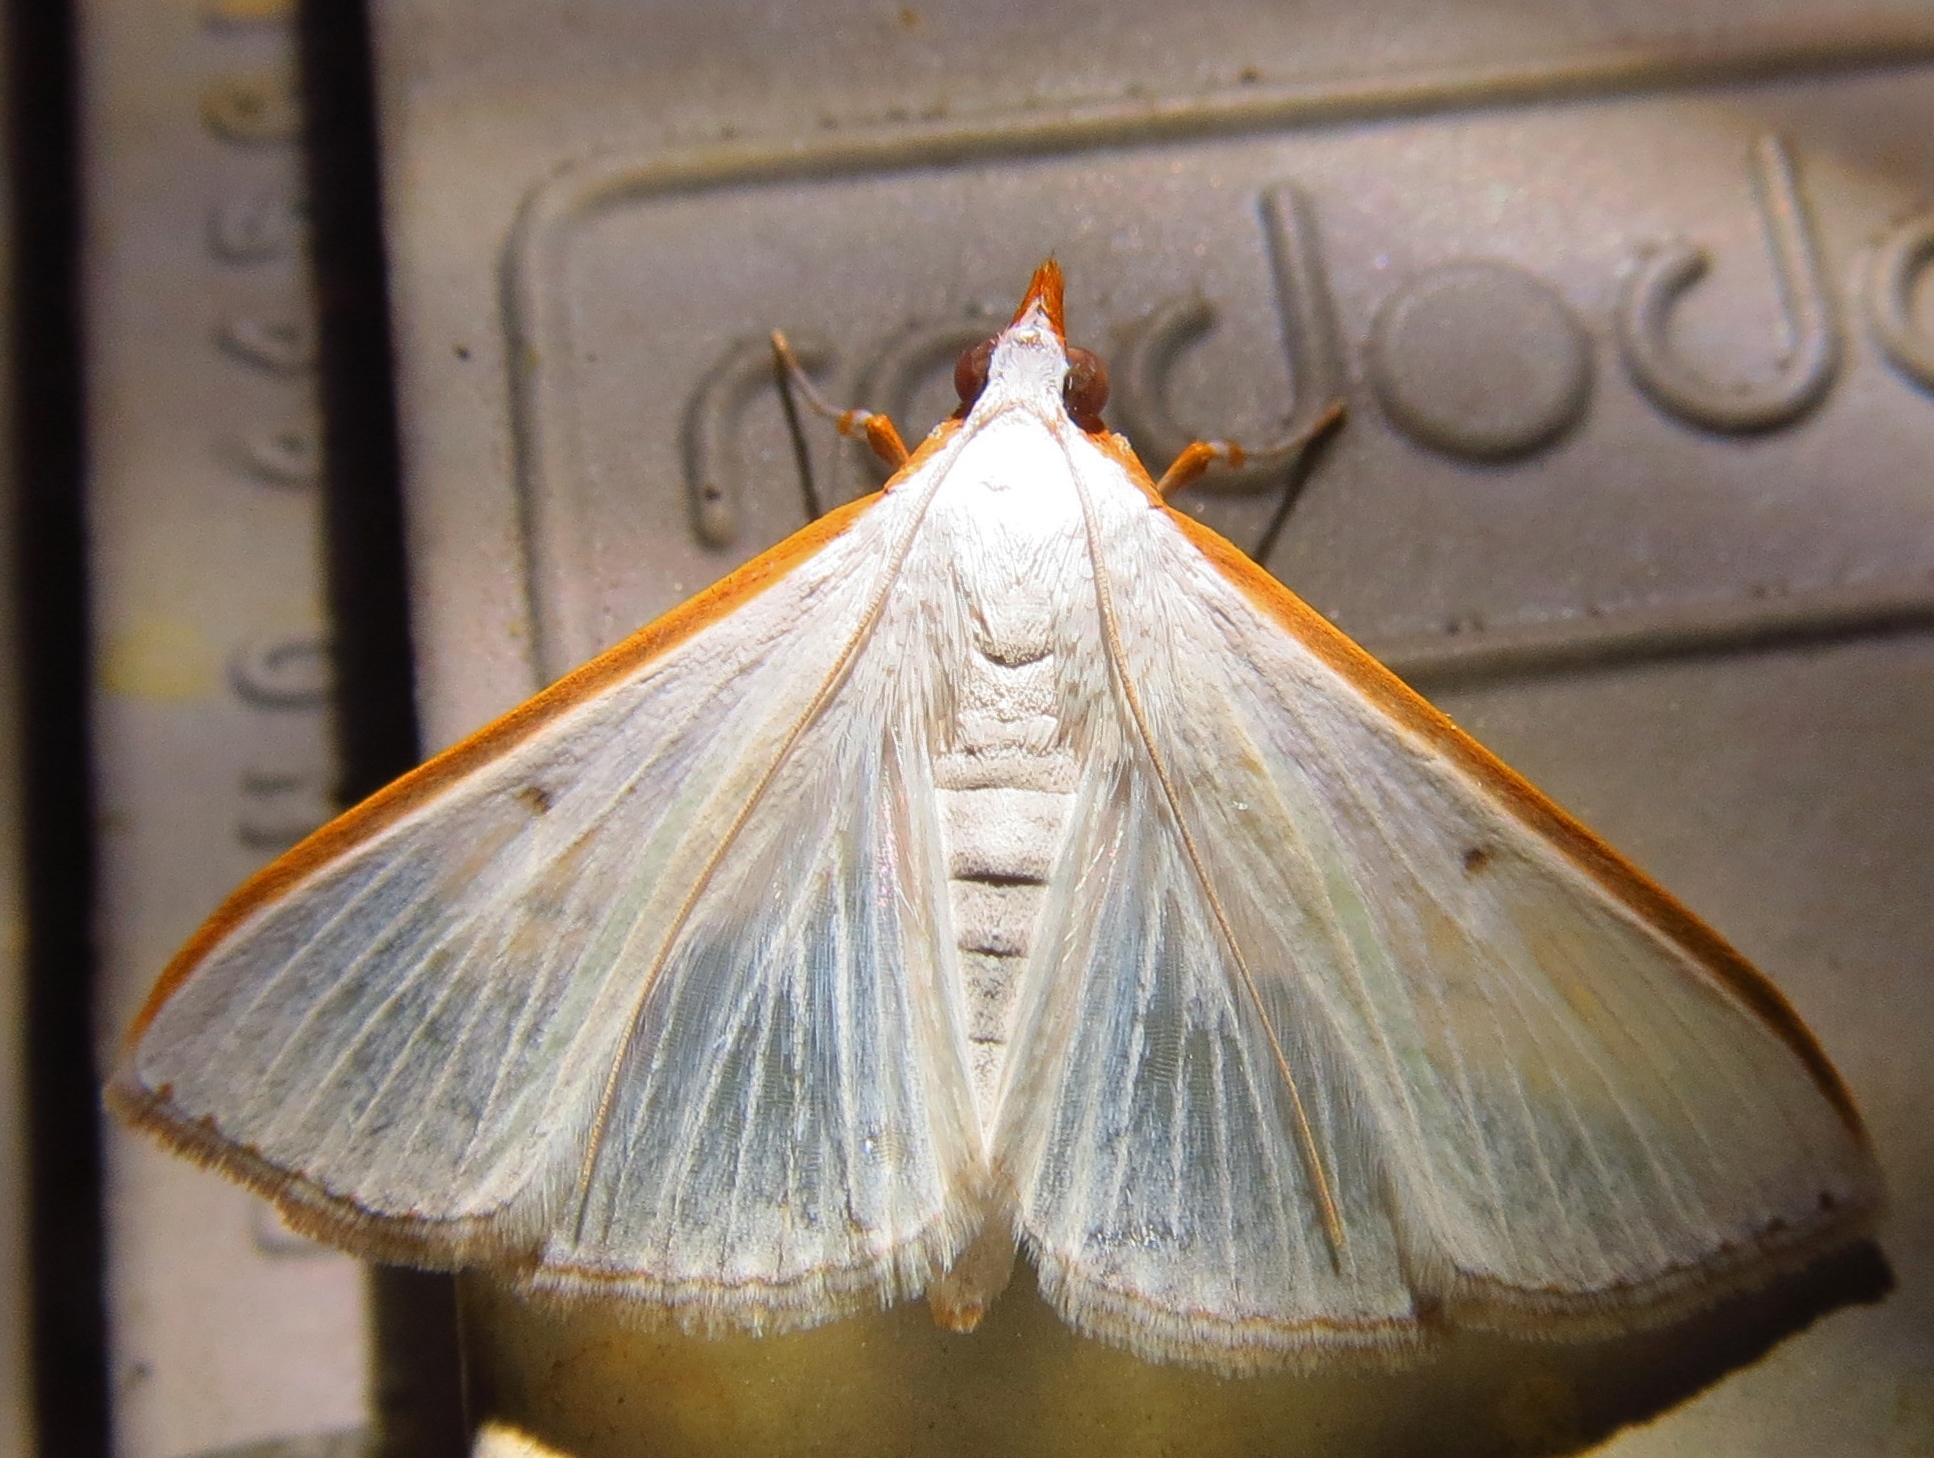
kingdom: Animalia
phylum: Arthropoda
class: Insecta
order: Lepidoptera
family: Crambidae
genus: Diaphania
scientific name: Diaphania costata
